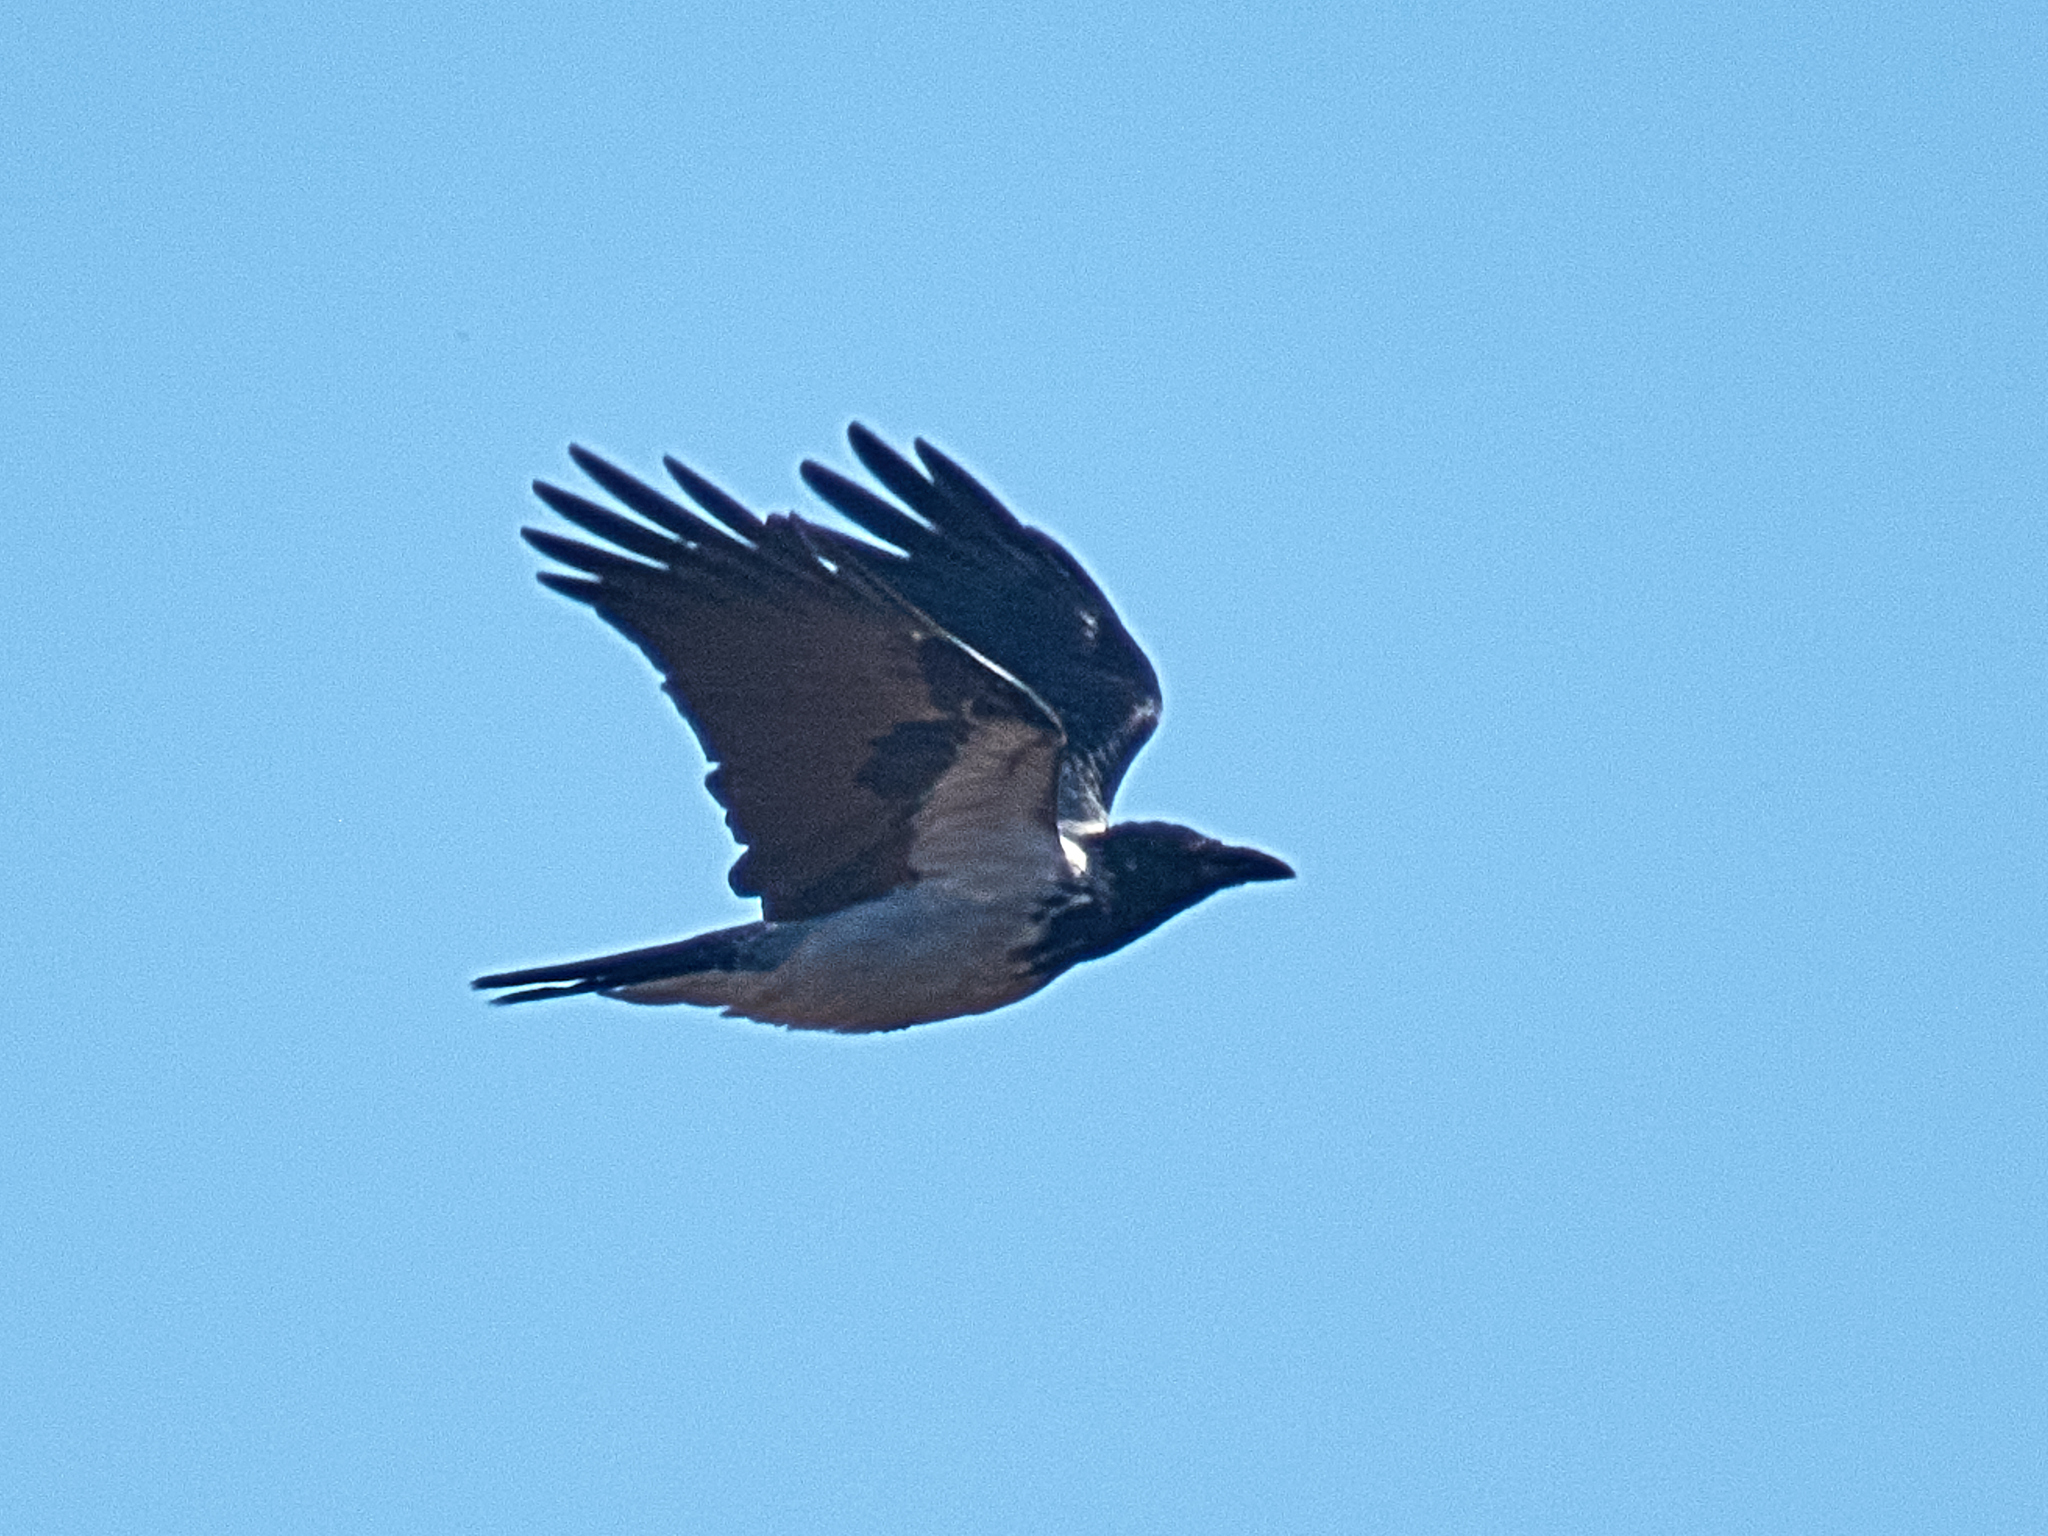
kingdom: Animalia
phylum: Chordata
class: Aves
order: Passeriformes
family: Corvidae
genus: Corvus
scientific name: Corvus cornix
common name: Hooded crow
